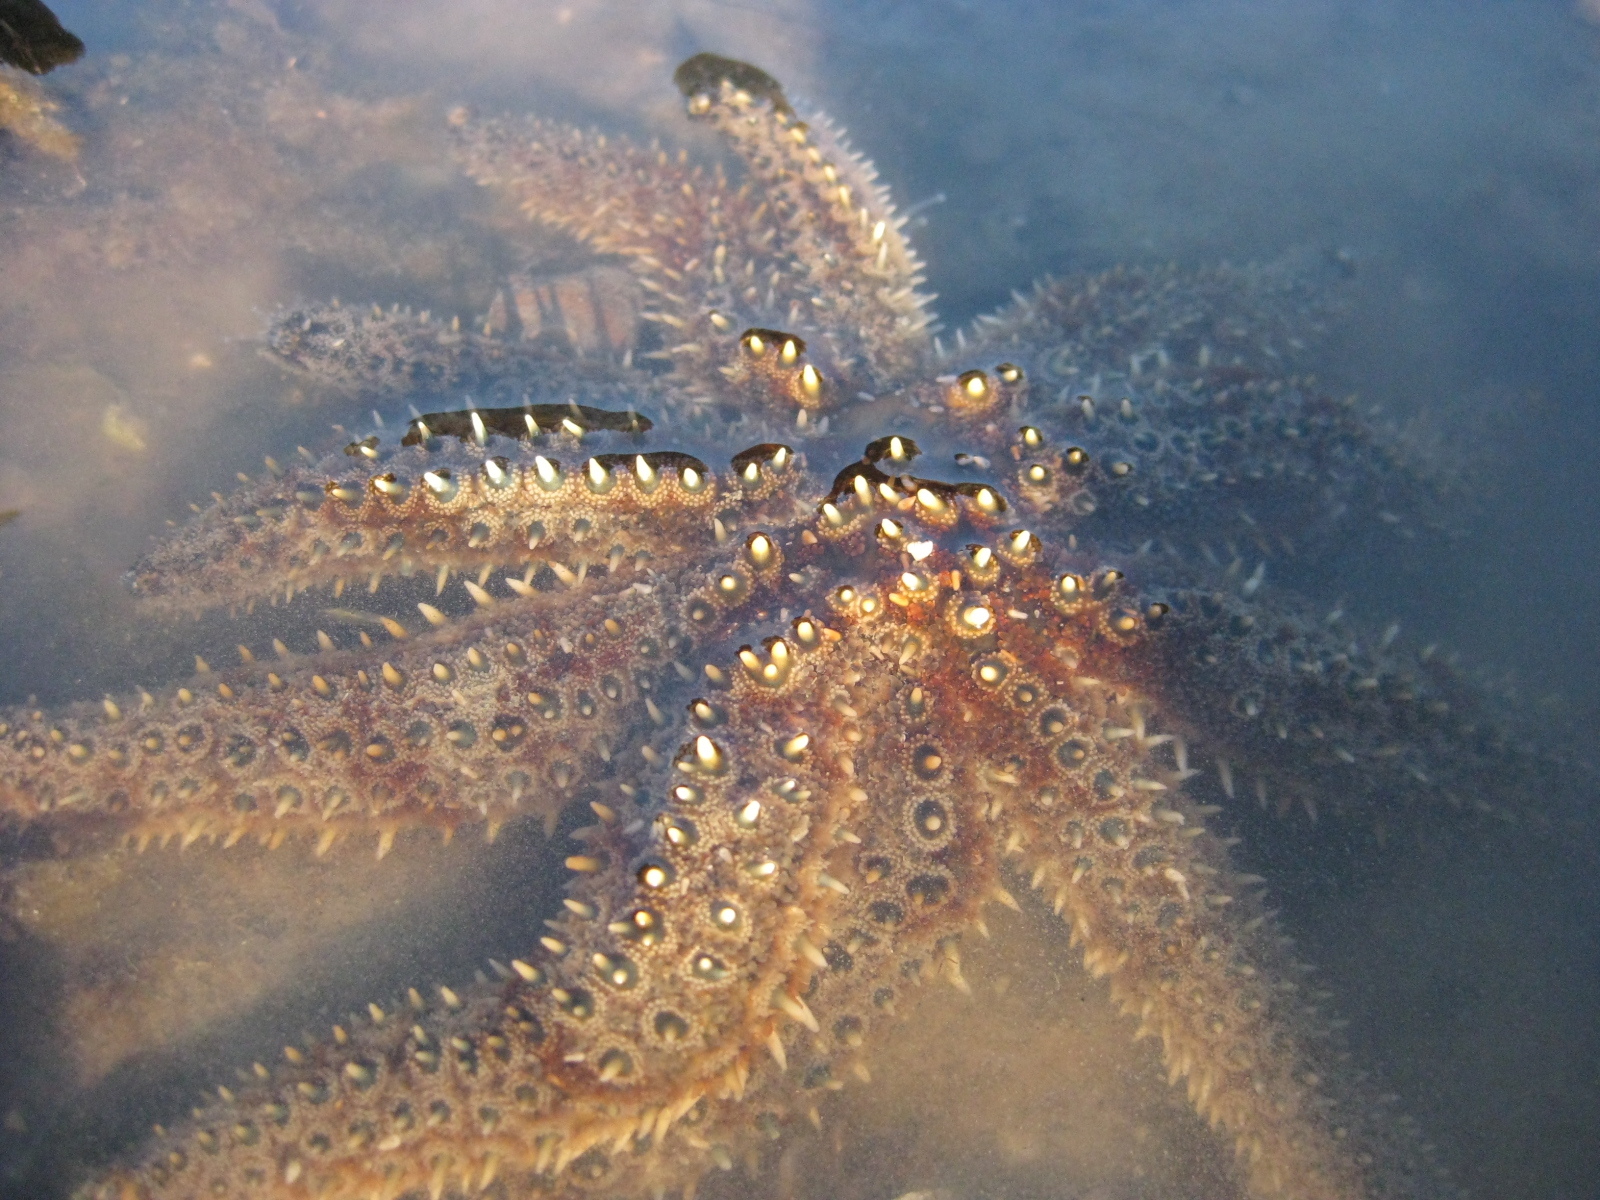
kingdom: Animalia
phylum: Echinodermata
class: Asteroidea
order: Forcipulatida
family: Asteriidae
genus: Coscinasterias
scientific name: Coscinasterias muricata
